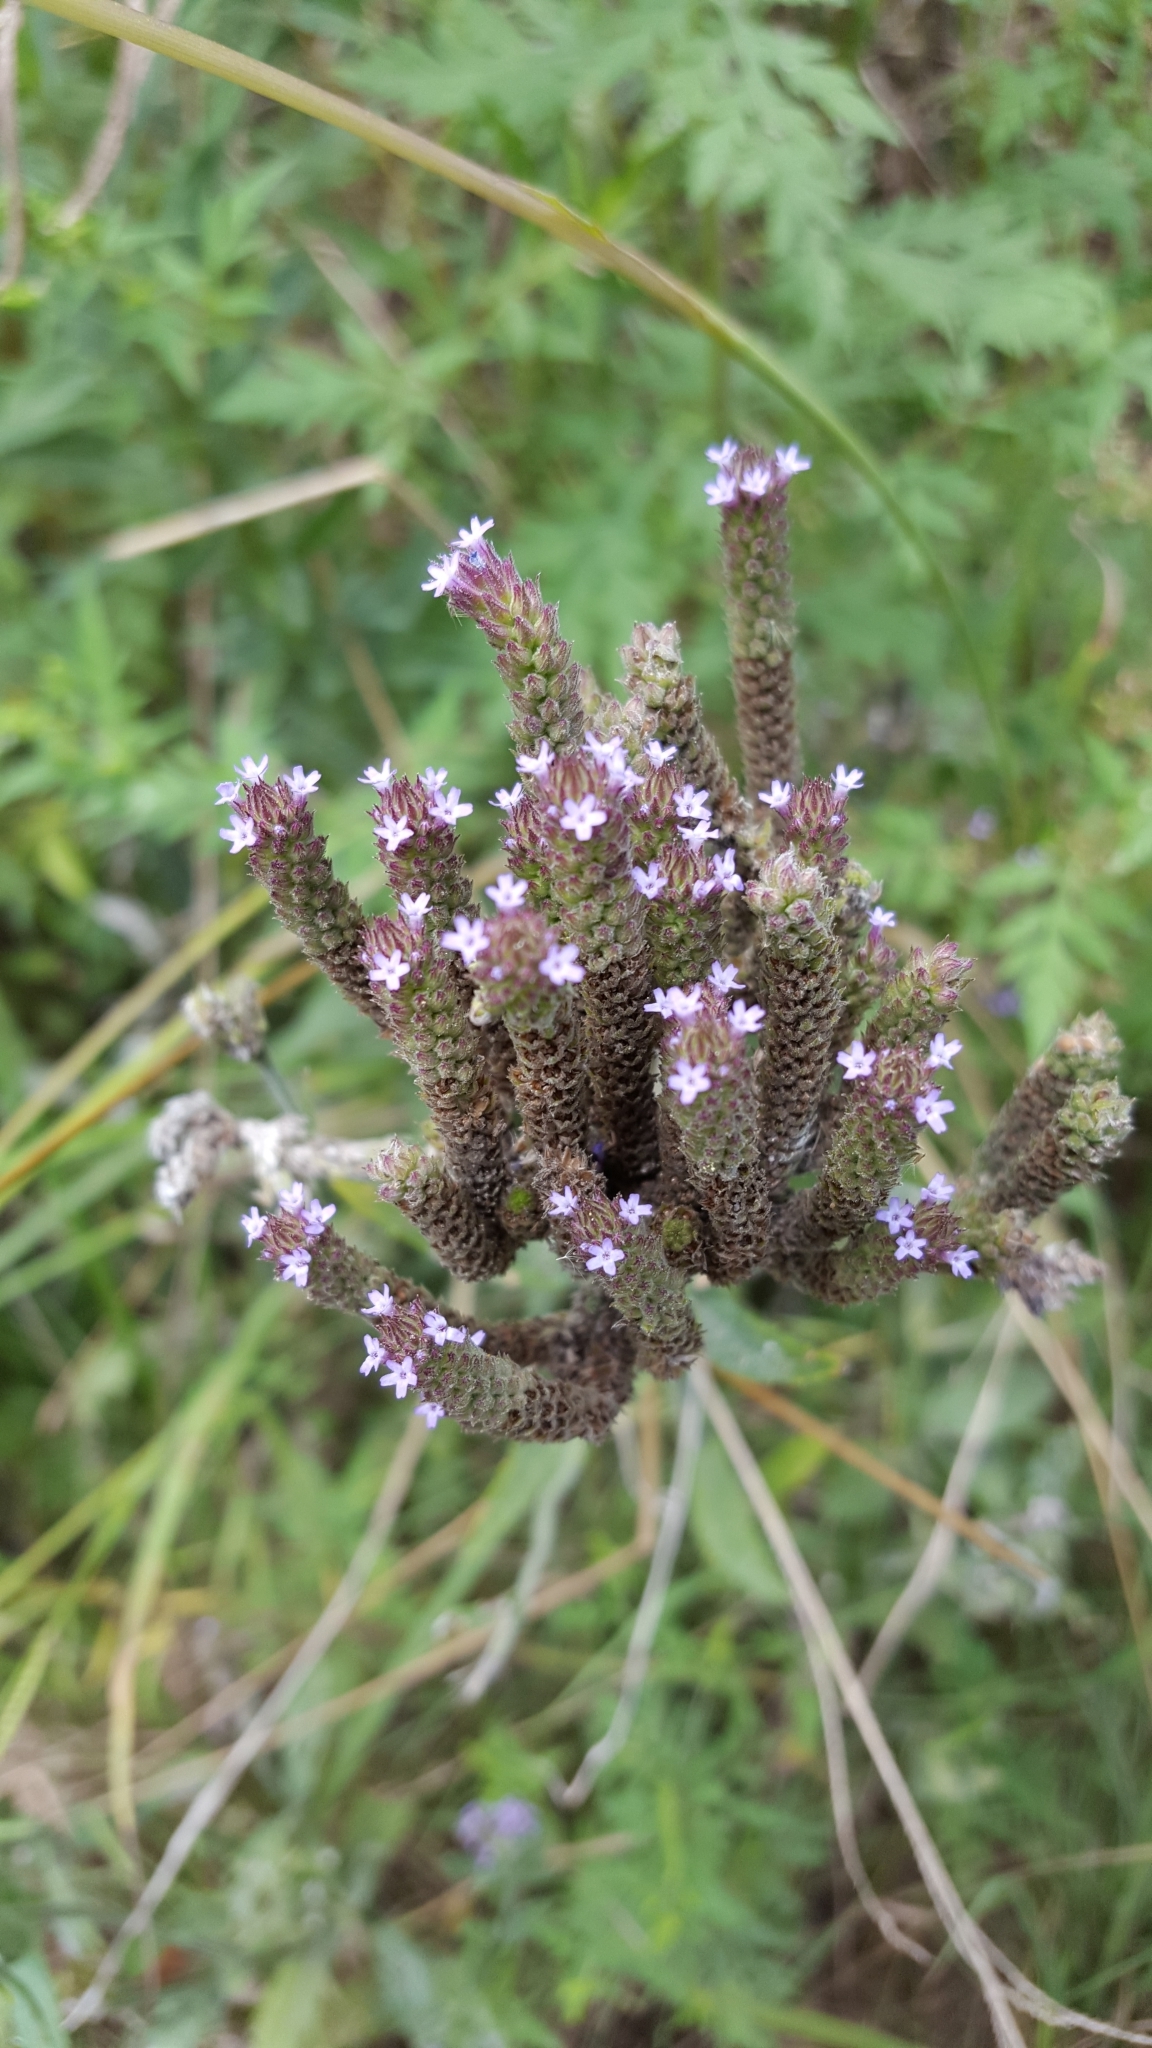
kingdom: Plantae
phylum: Tracheophyta
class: Magnoliopsida
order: Lamiales
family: Verbenaceae
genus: Verbena
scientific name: Verbena brasiliensis
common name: Brazilian vervain
